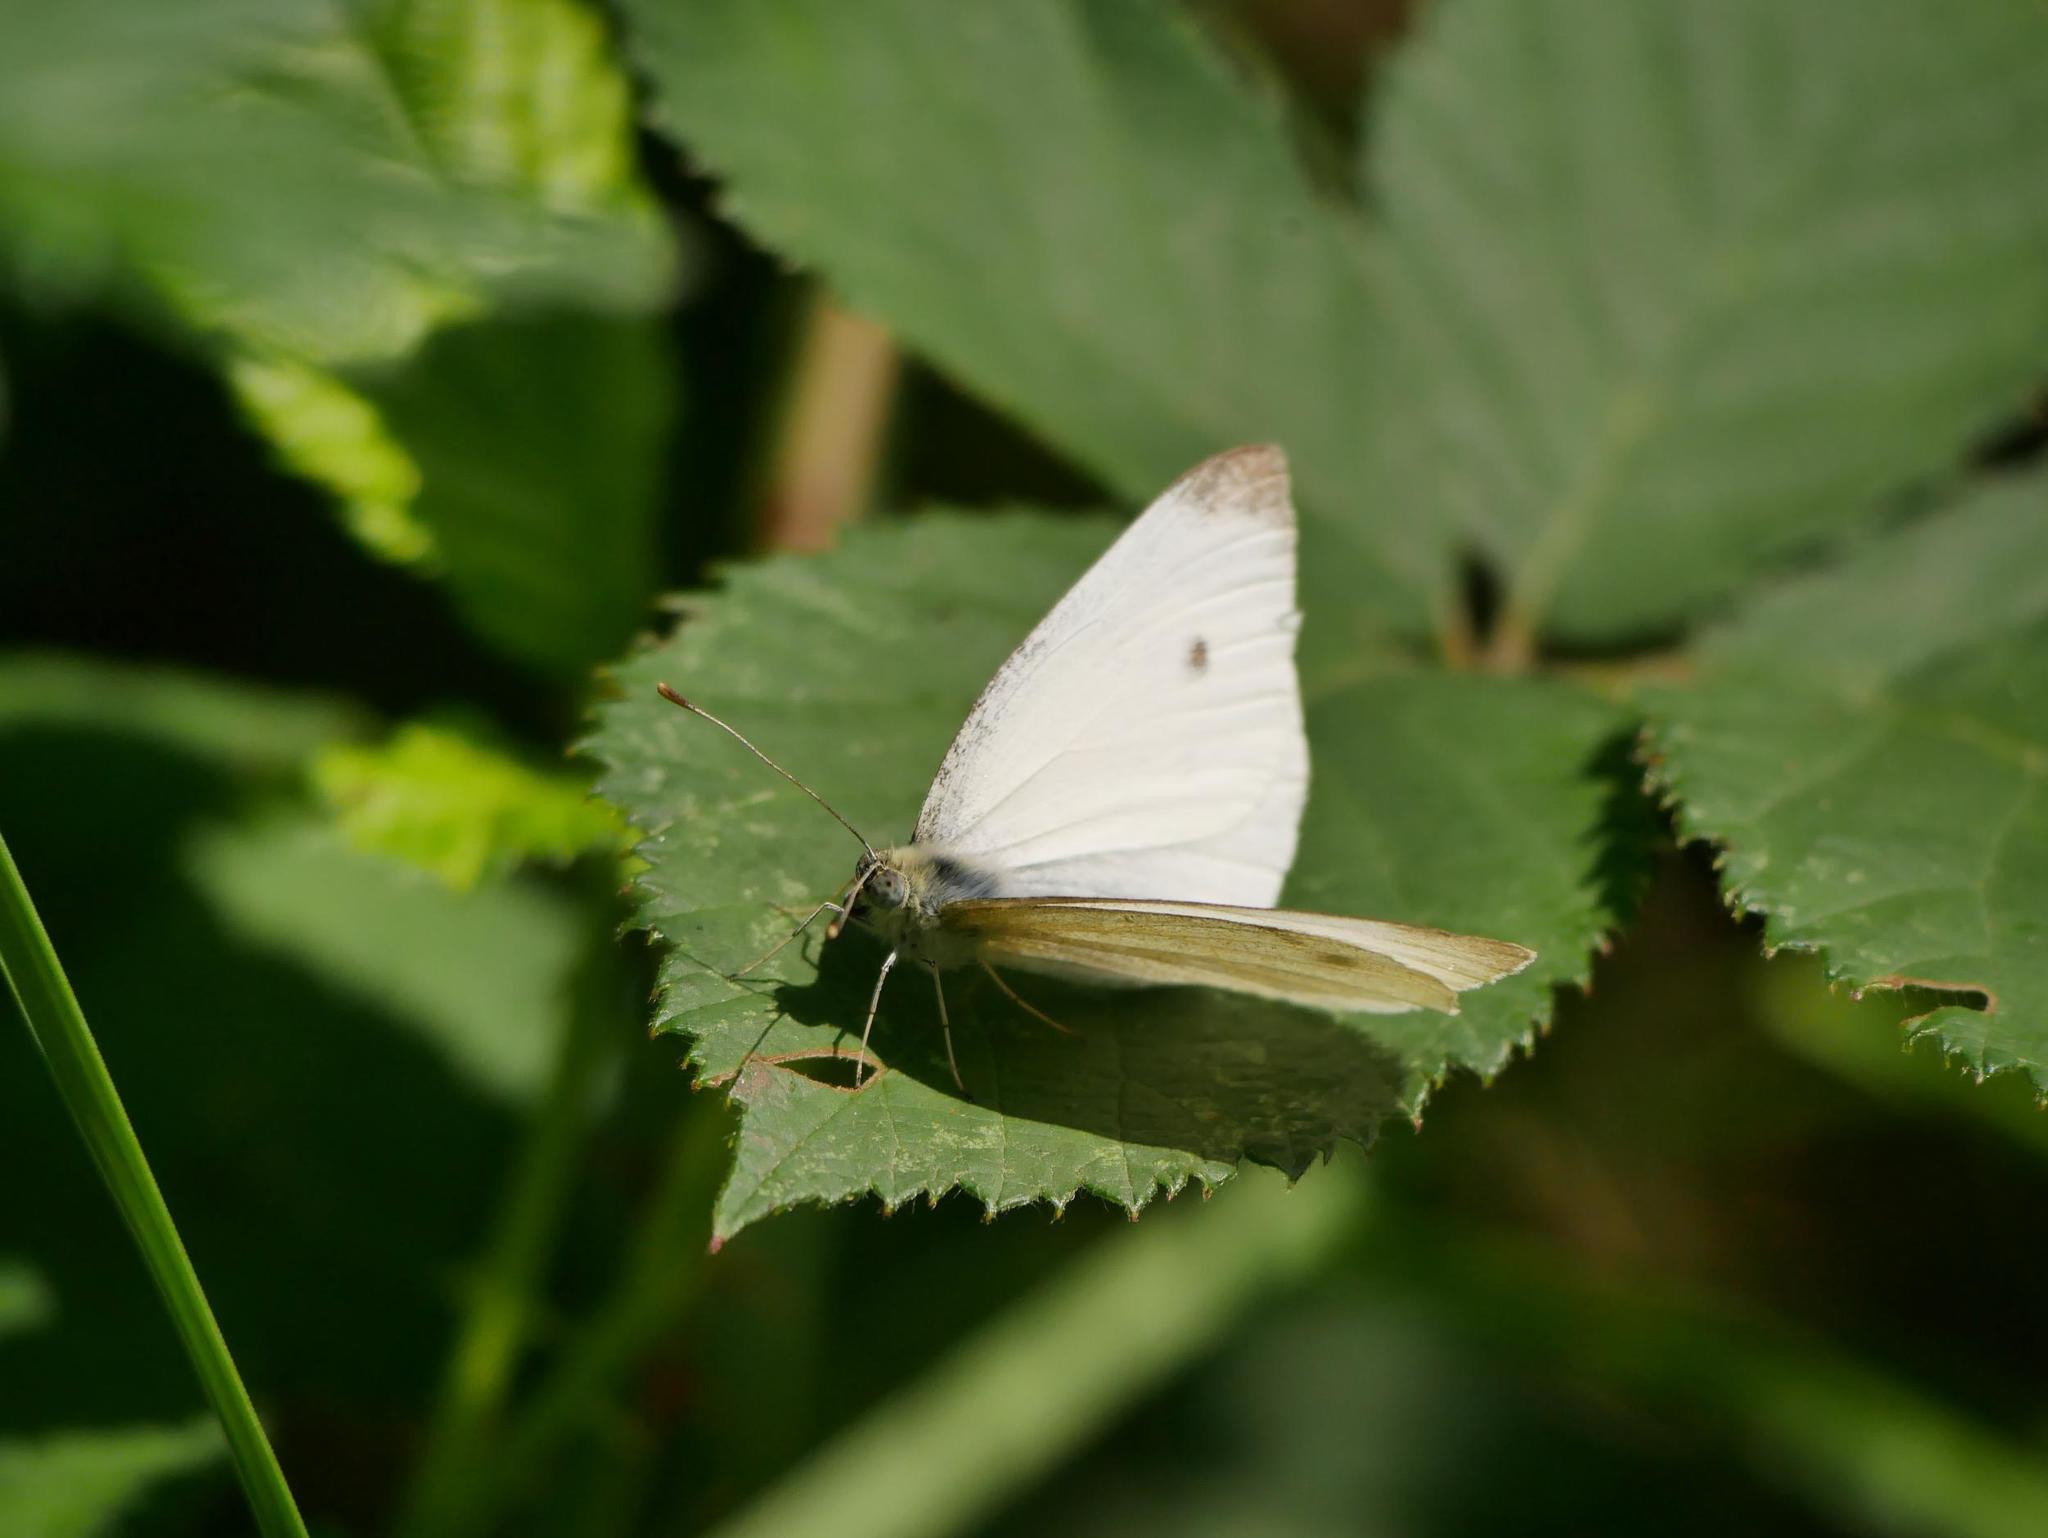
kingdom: Animalia
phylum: Arthropoda
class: Insecta
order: Lepidoptera
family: Pieridae
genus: Pieris
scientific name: Pieris rapae
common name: Small white
